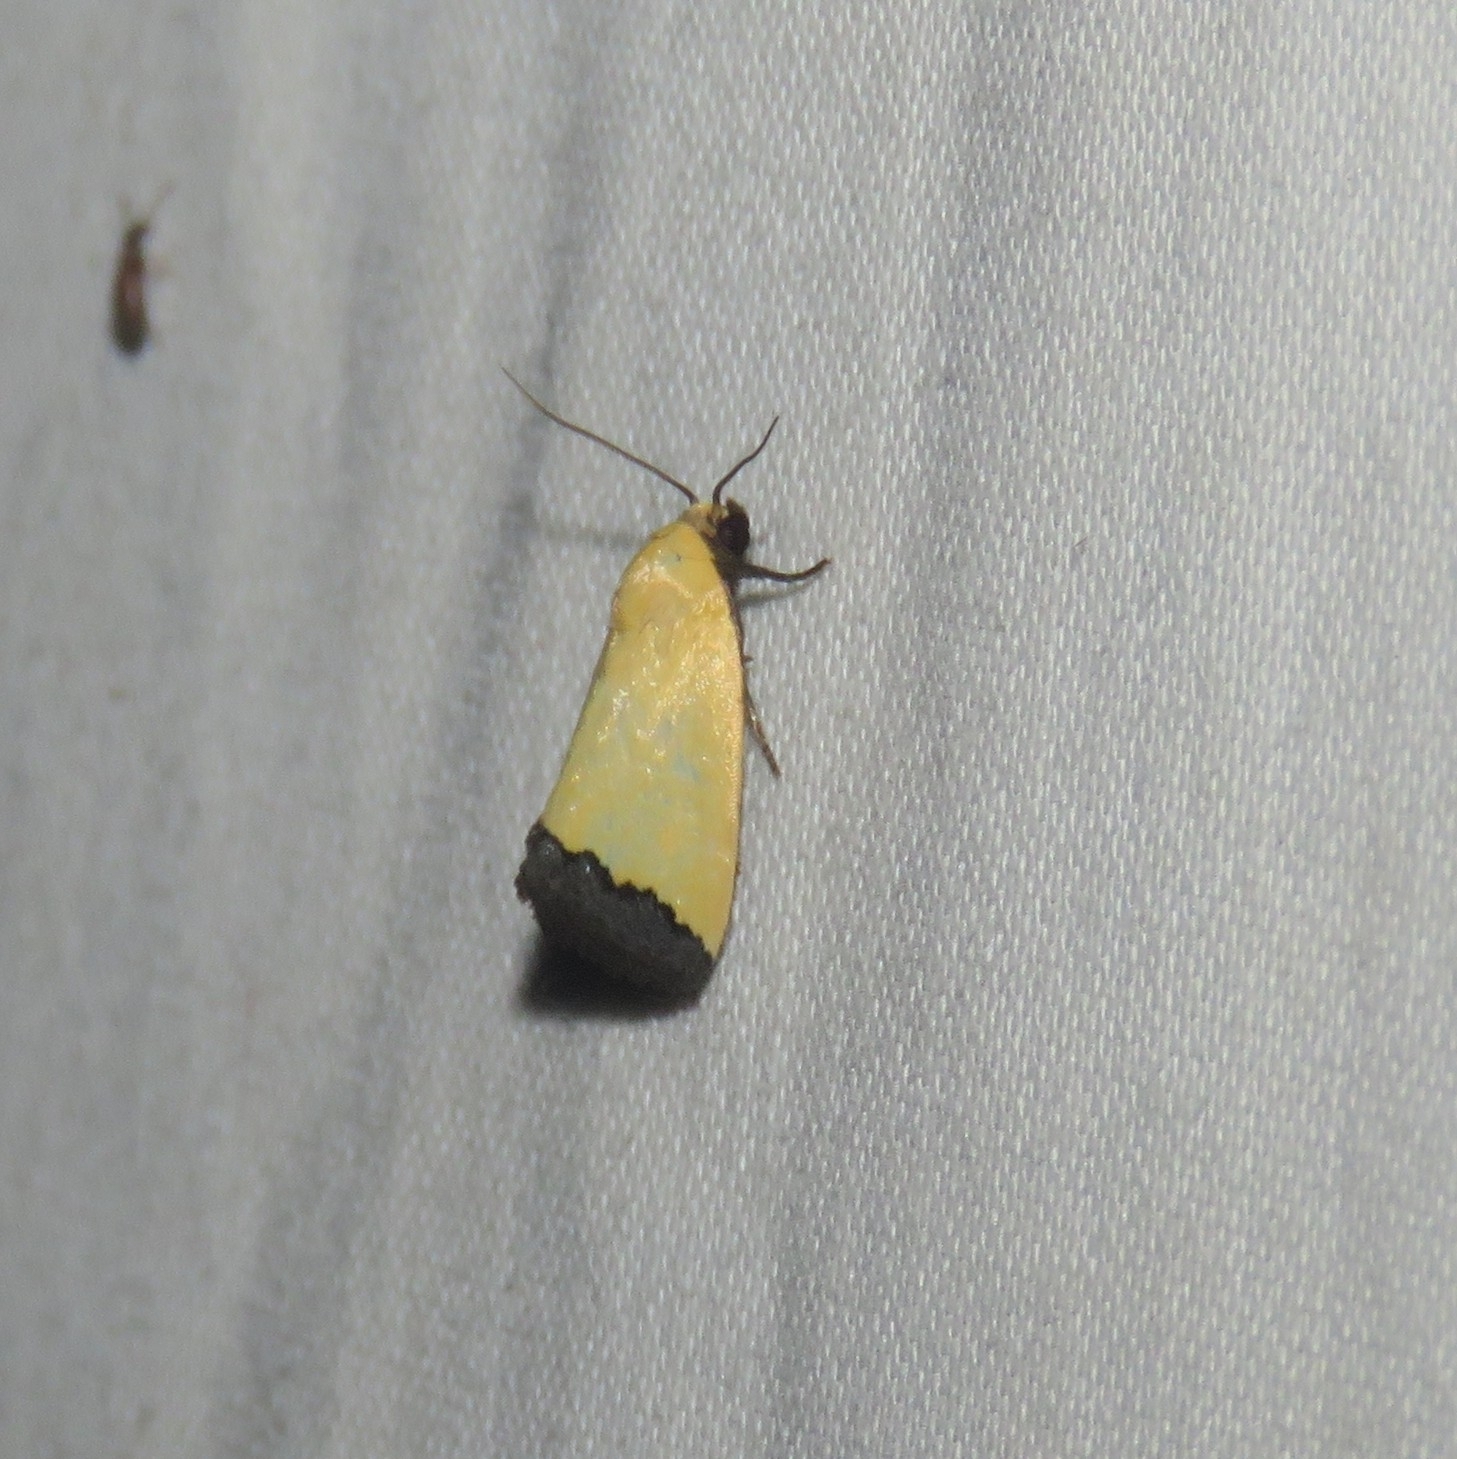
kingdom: Animalia
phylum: Arthropoda
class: Insecta
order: Lepidoptera
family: Noctuidae
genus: Eustrotia
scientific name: Eustrotia marginata
